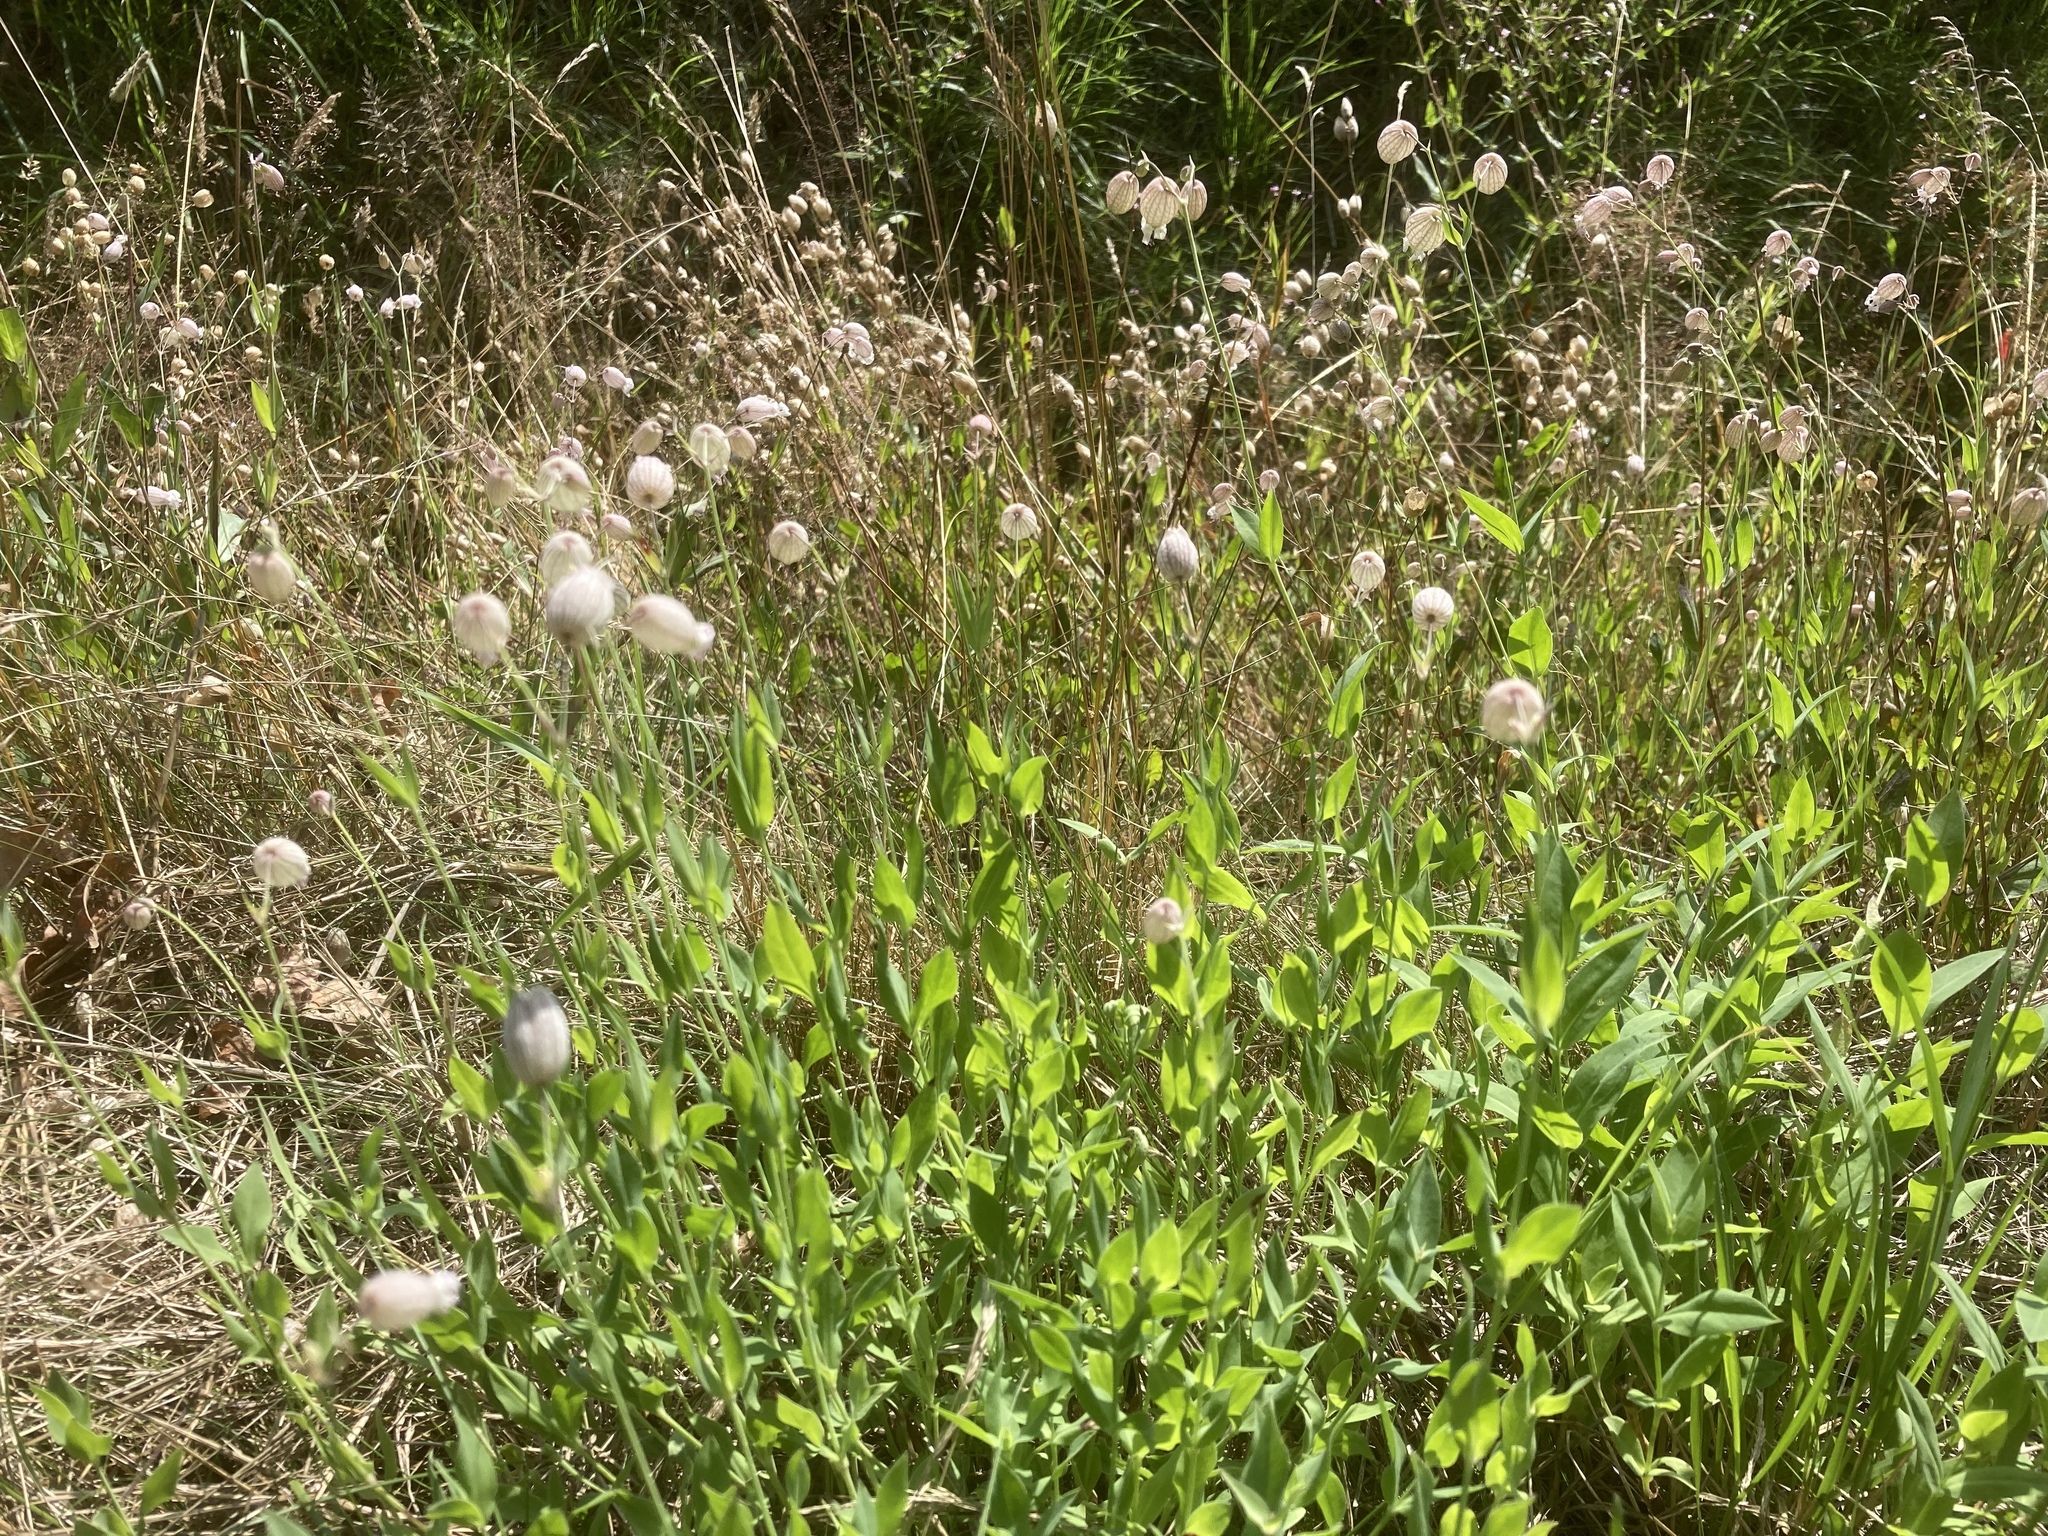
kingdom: Plantae
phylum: Tracheophyta
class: Magnoliopsida
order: Caryophyllales
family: Caryophyllaceae
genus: Silene
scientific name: Silene vulgaris
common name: Bladder campion
